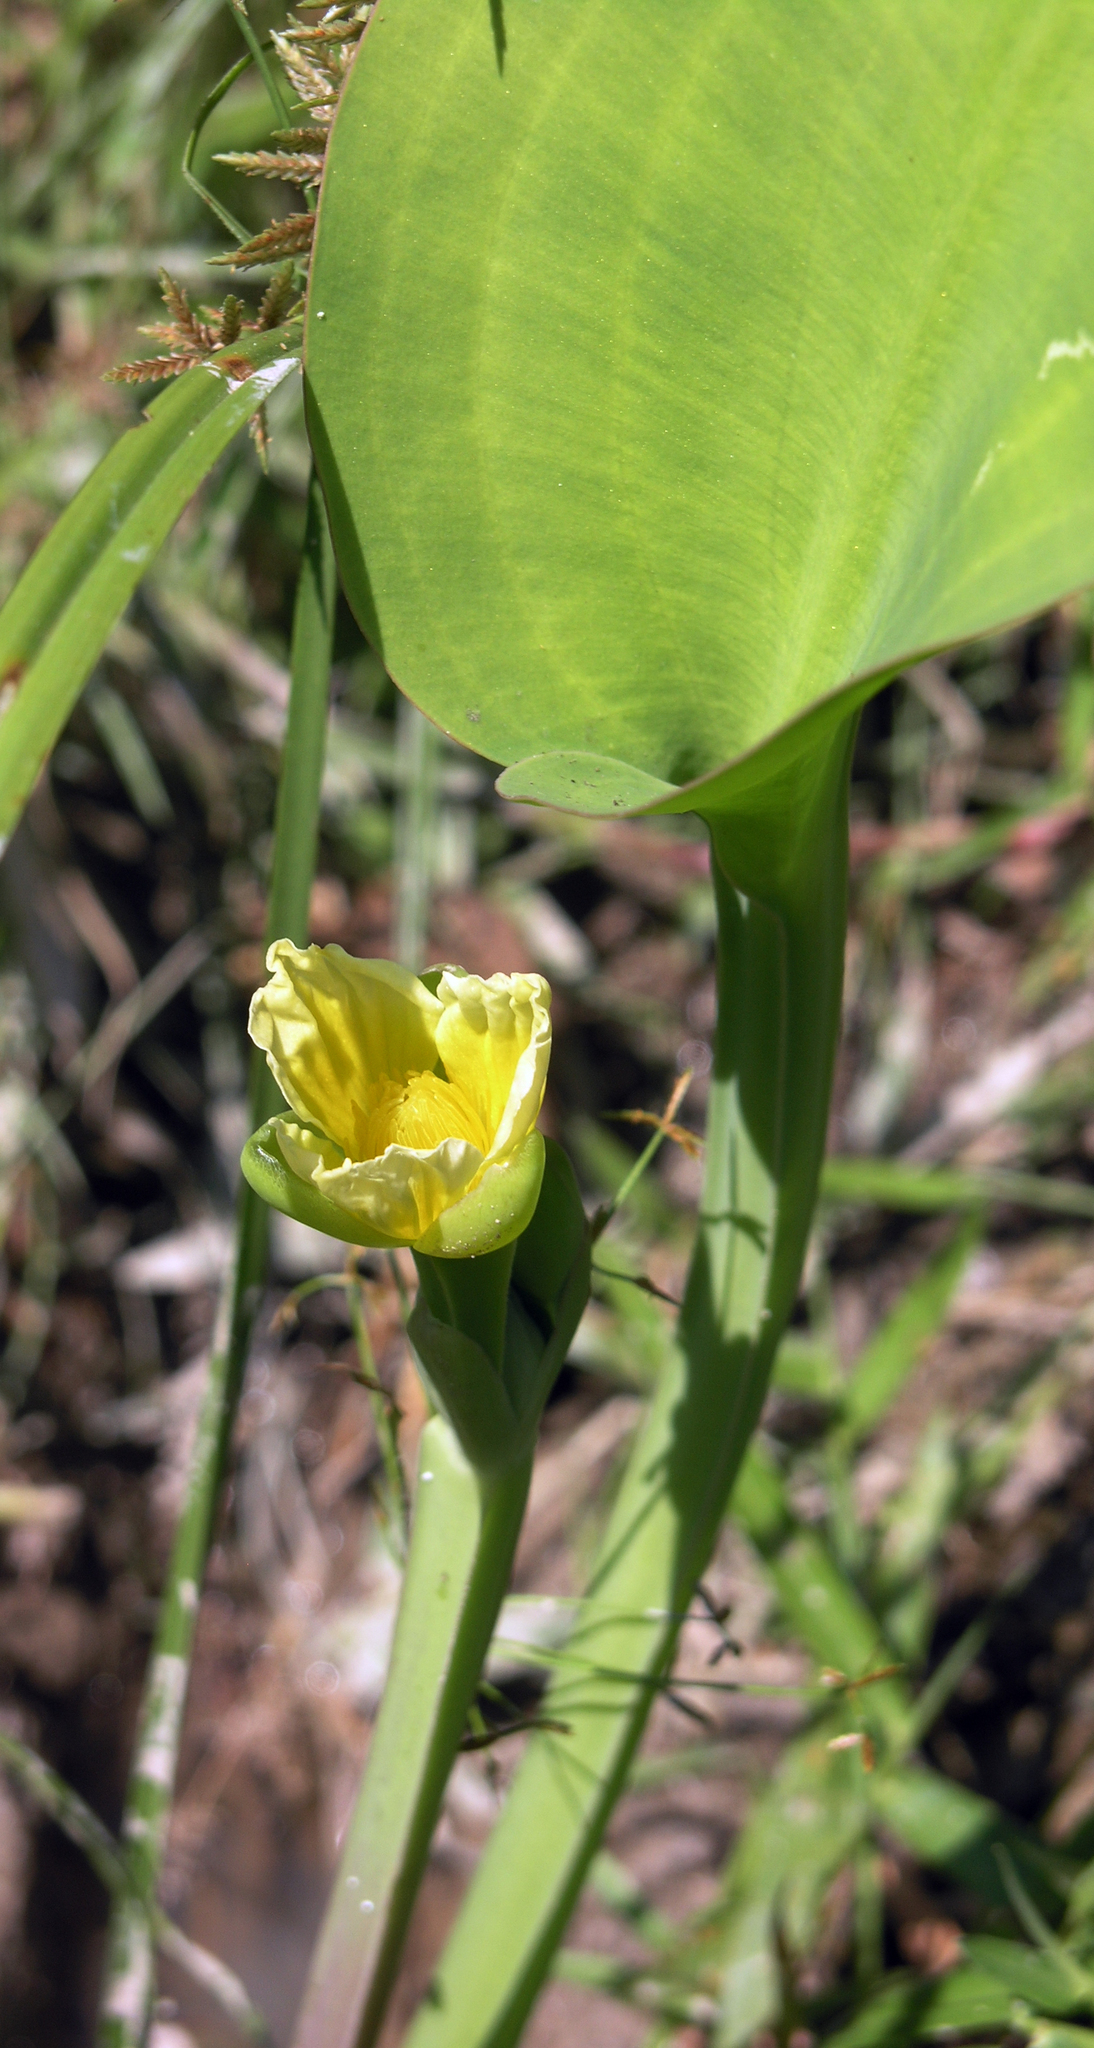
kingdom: Plantae
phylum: Tracheophyta
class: Liliopsida
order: Alismatales
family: Alismataceae
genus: Limnocharis
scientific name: Limnocharis flava
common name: Sawah-flower-rush
